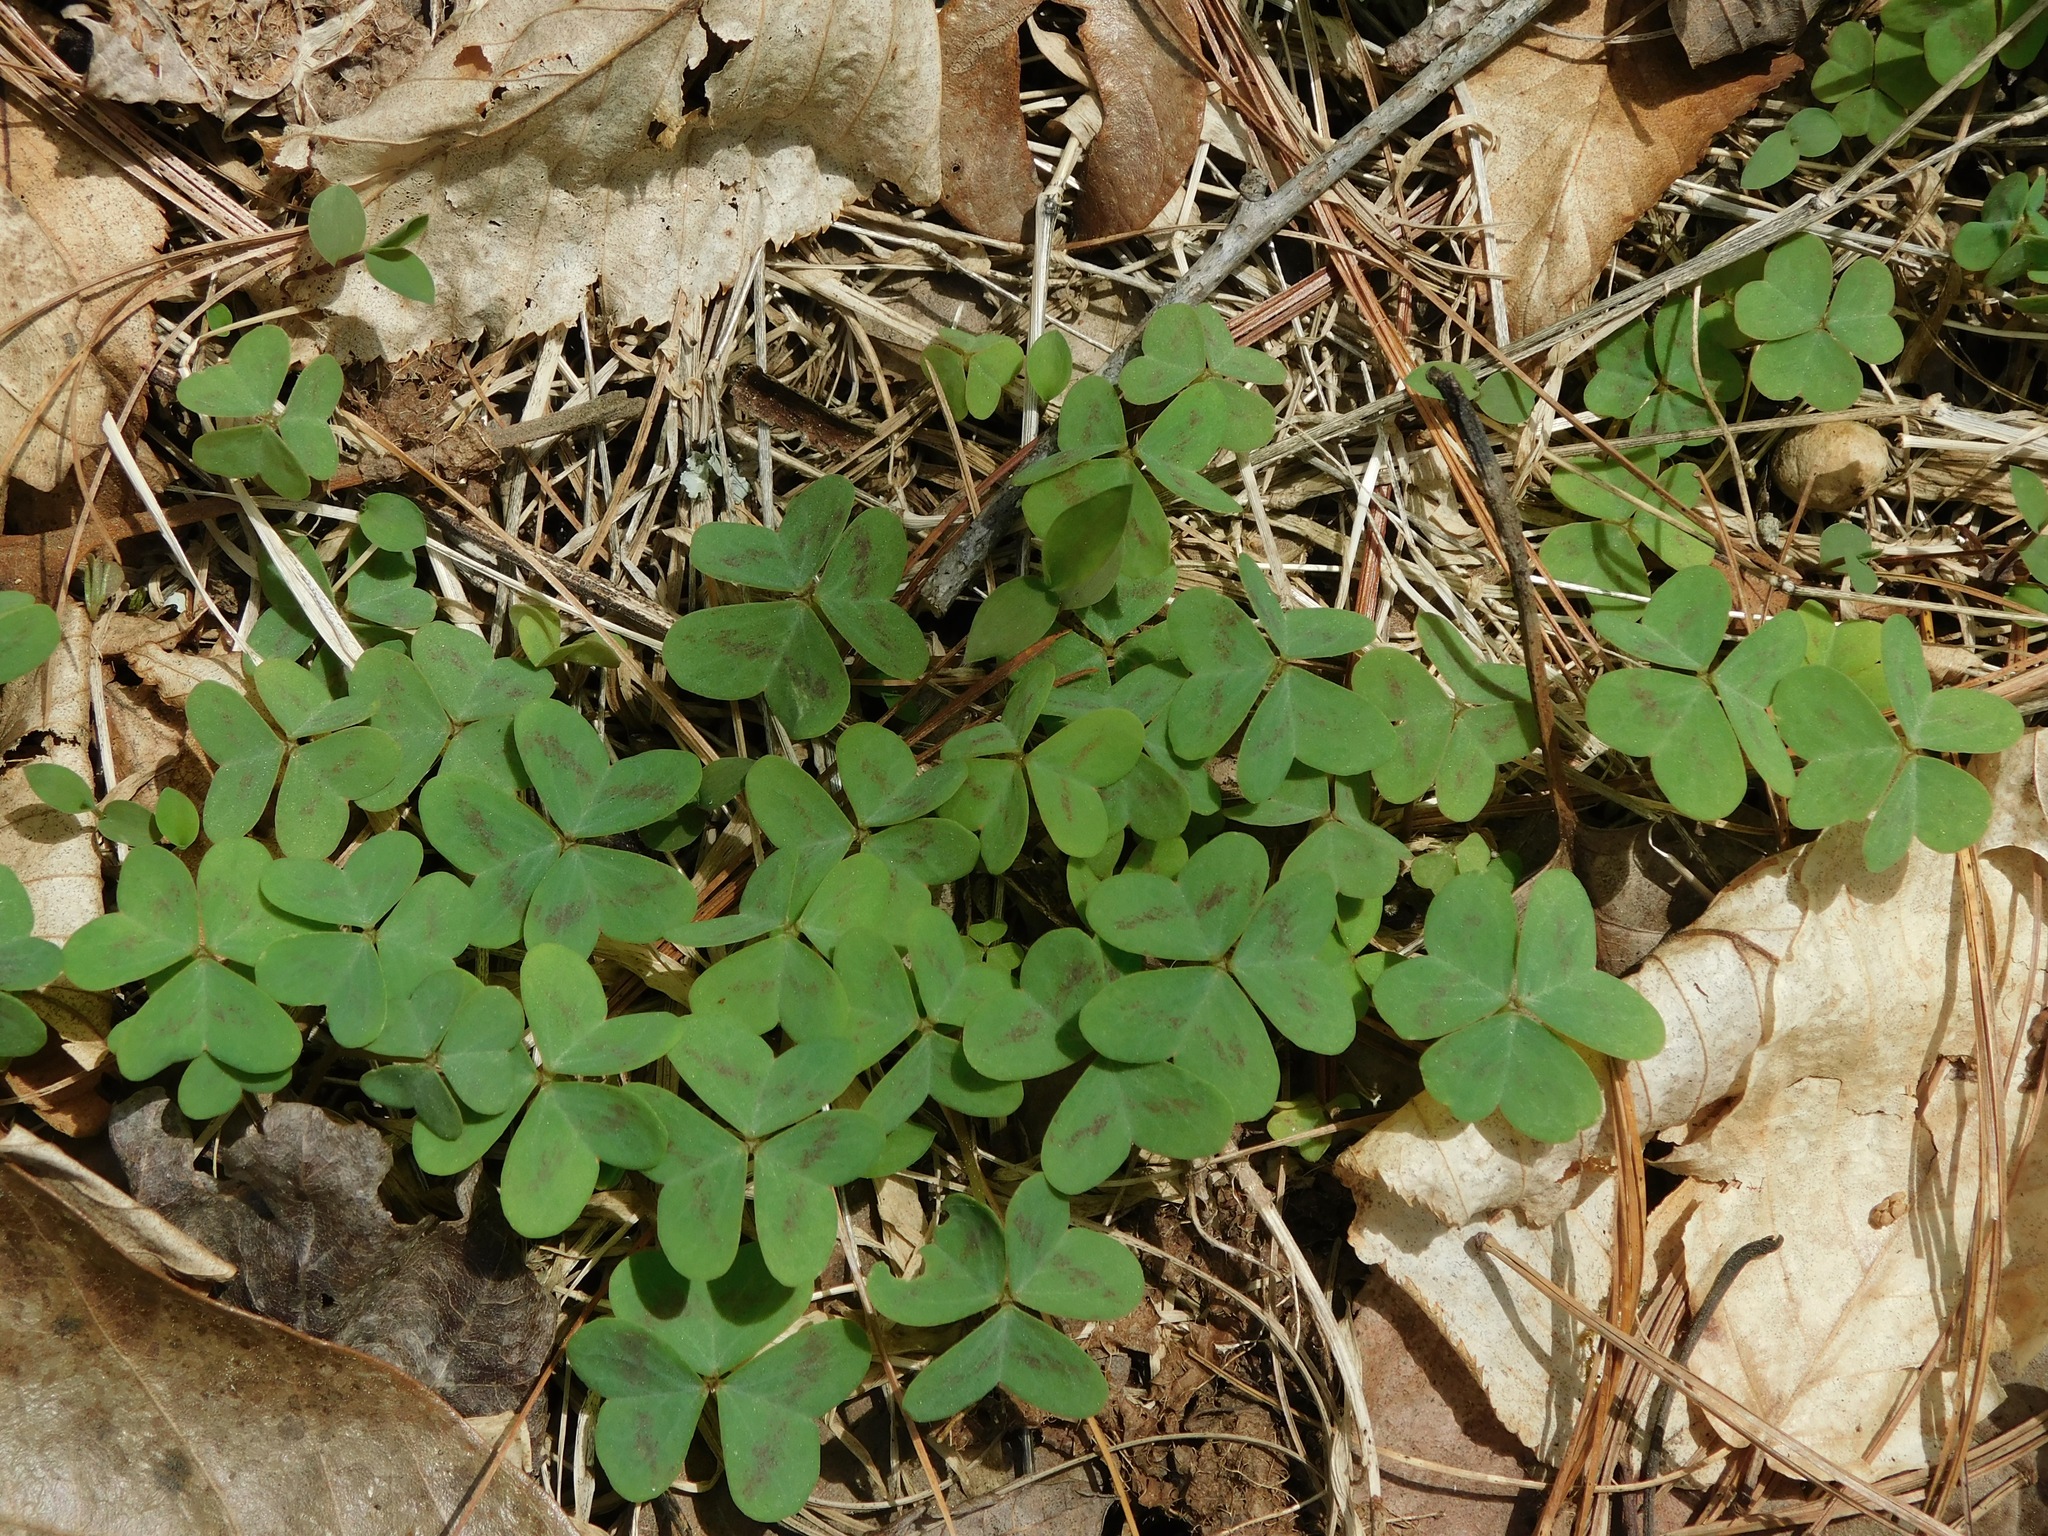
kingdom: Plantae
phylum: Tracheophyta
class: Magnoliopsida
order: Oxalidales
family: Oxalidaceae
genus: Oxalis
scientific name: Oxalis violacea
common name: Violet wood-sorrel
